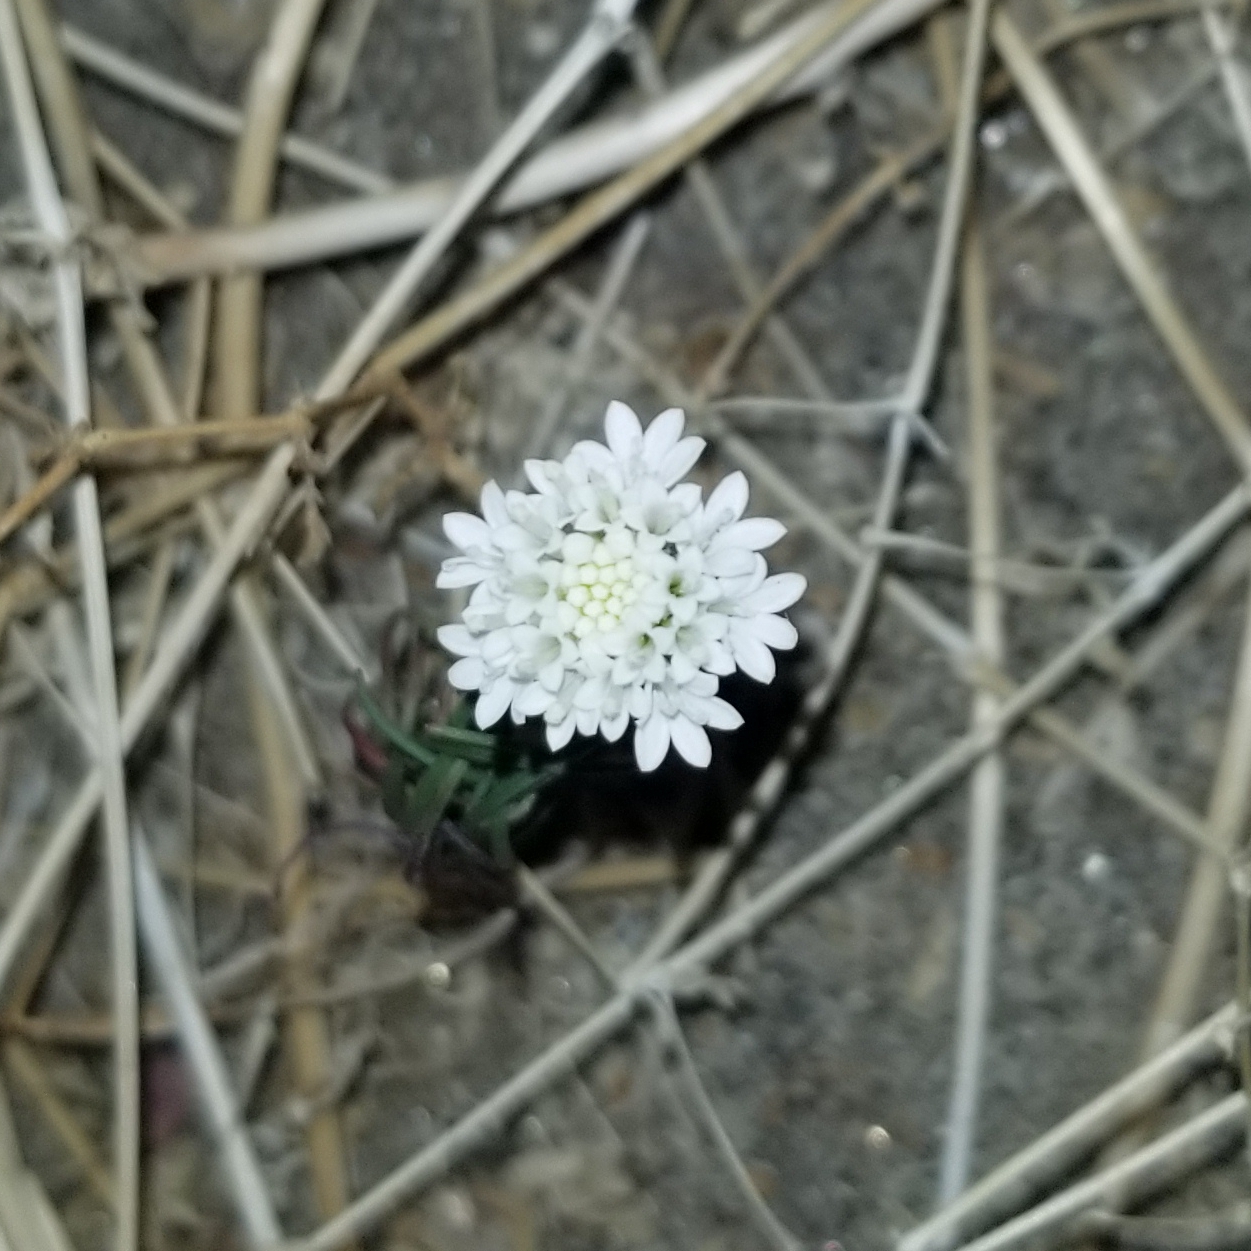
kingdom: Plantae
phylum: Tracheophyta
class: Magnoliopsida
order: Asterales
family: Asteraceae
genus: Chaenactis
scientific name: Chaenactis fremontii
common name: Fremont pincushion
